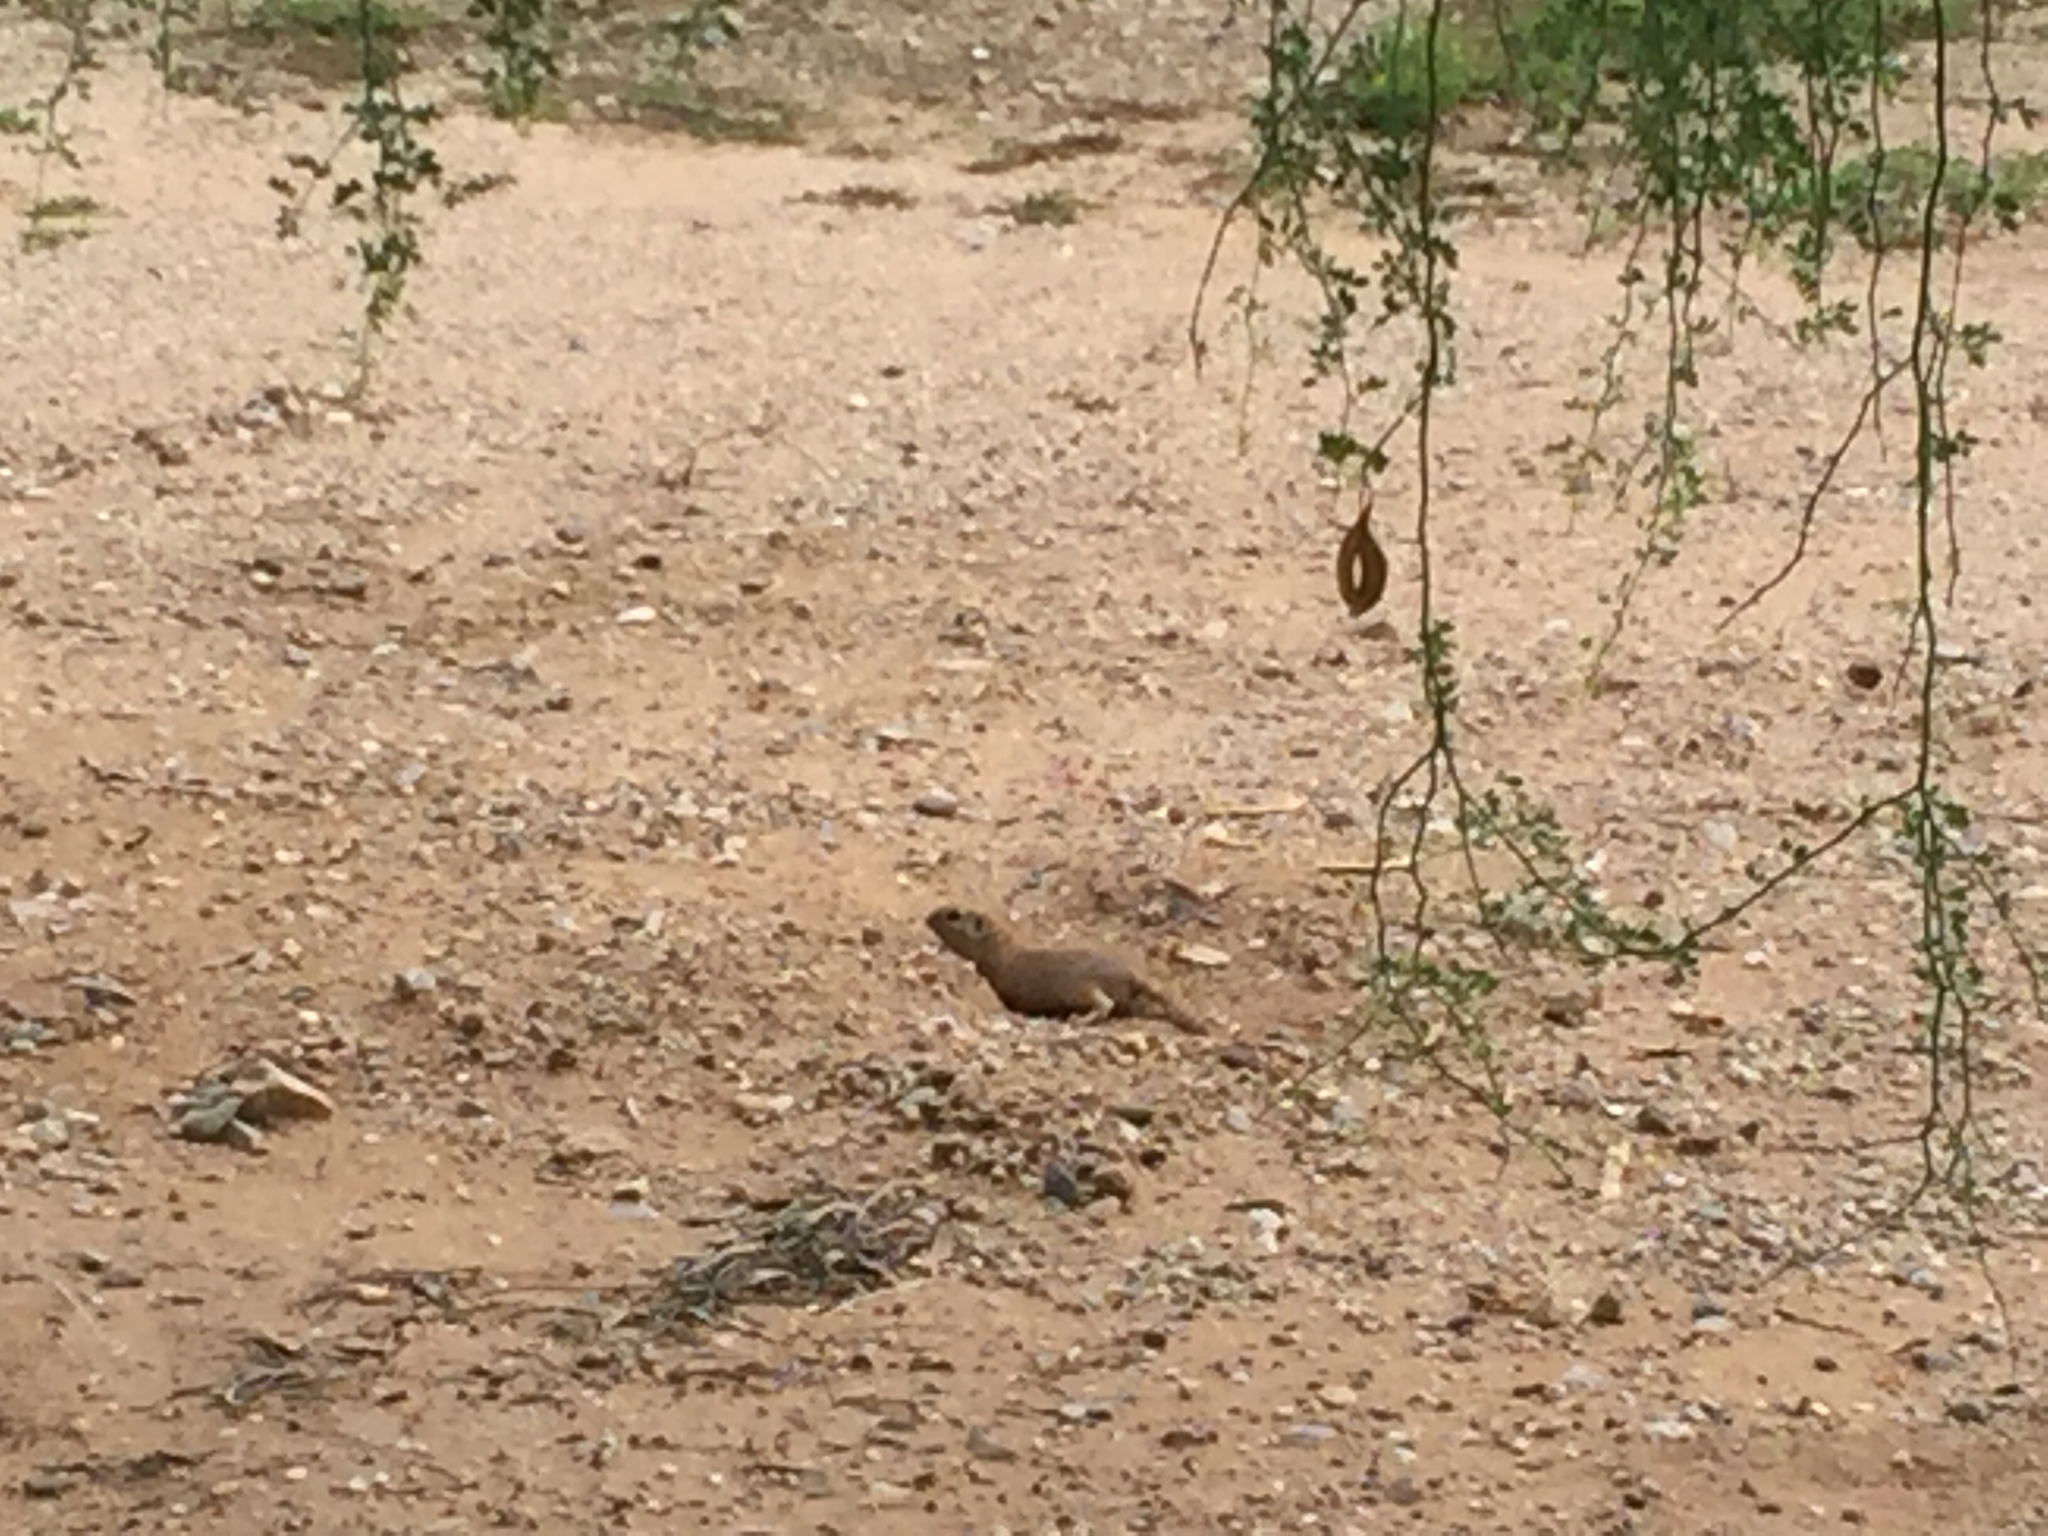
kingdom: Animalia
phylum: Chordata
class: Mammalia
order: Rodentia
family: Sciuridae
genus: Xerospermophilus
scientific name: Xerospermophilus tereticaudus
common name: Round-tailed ground squirrel
